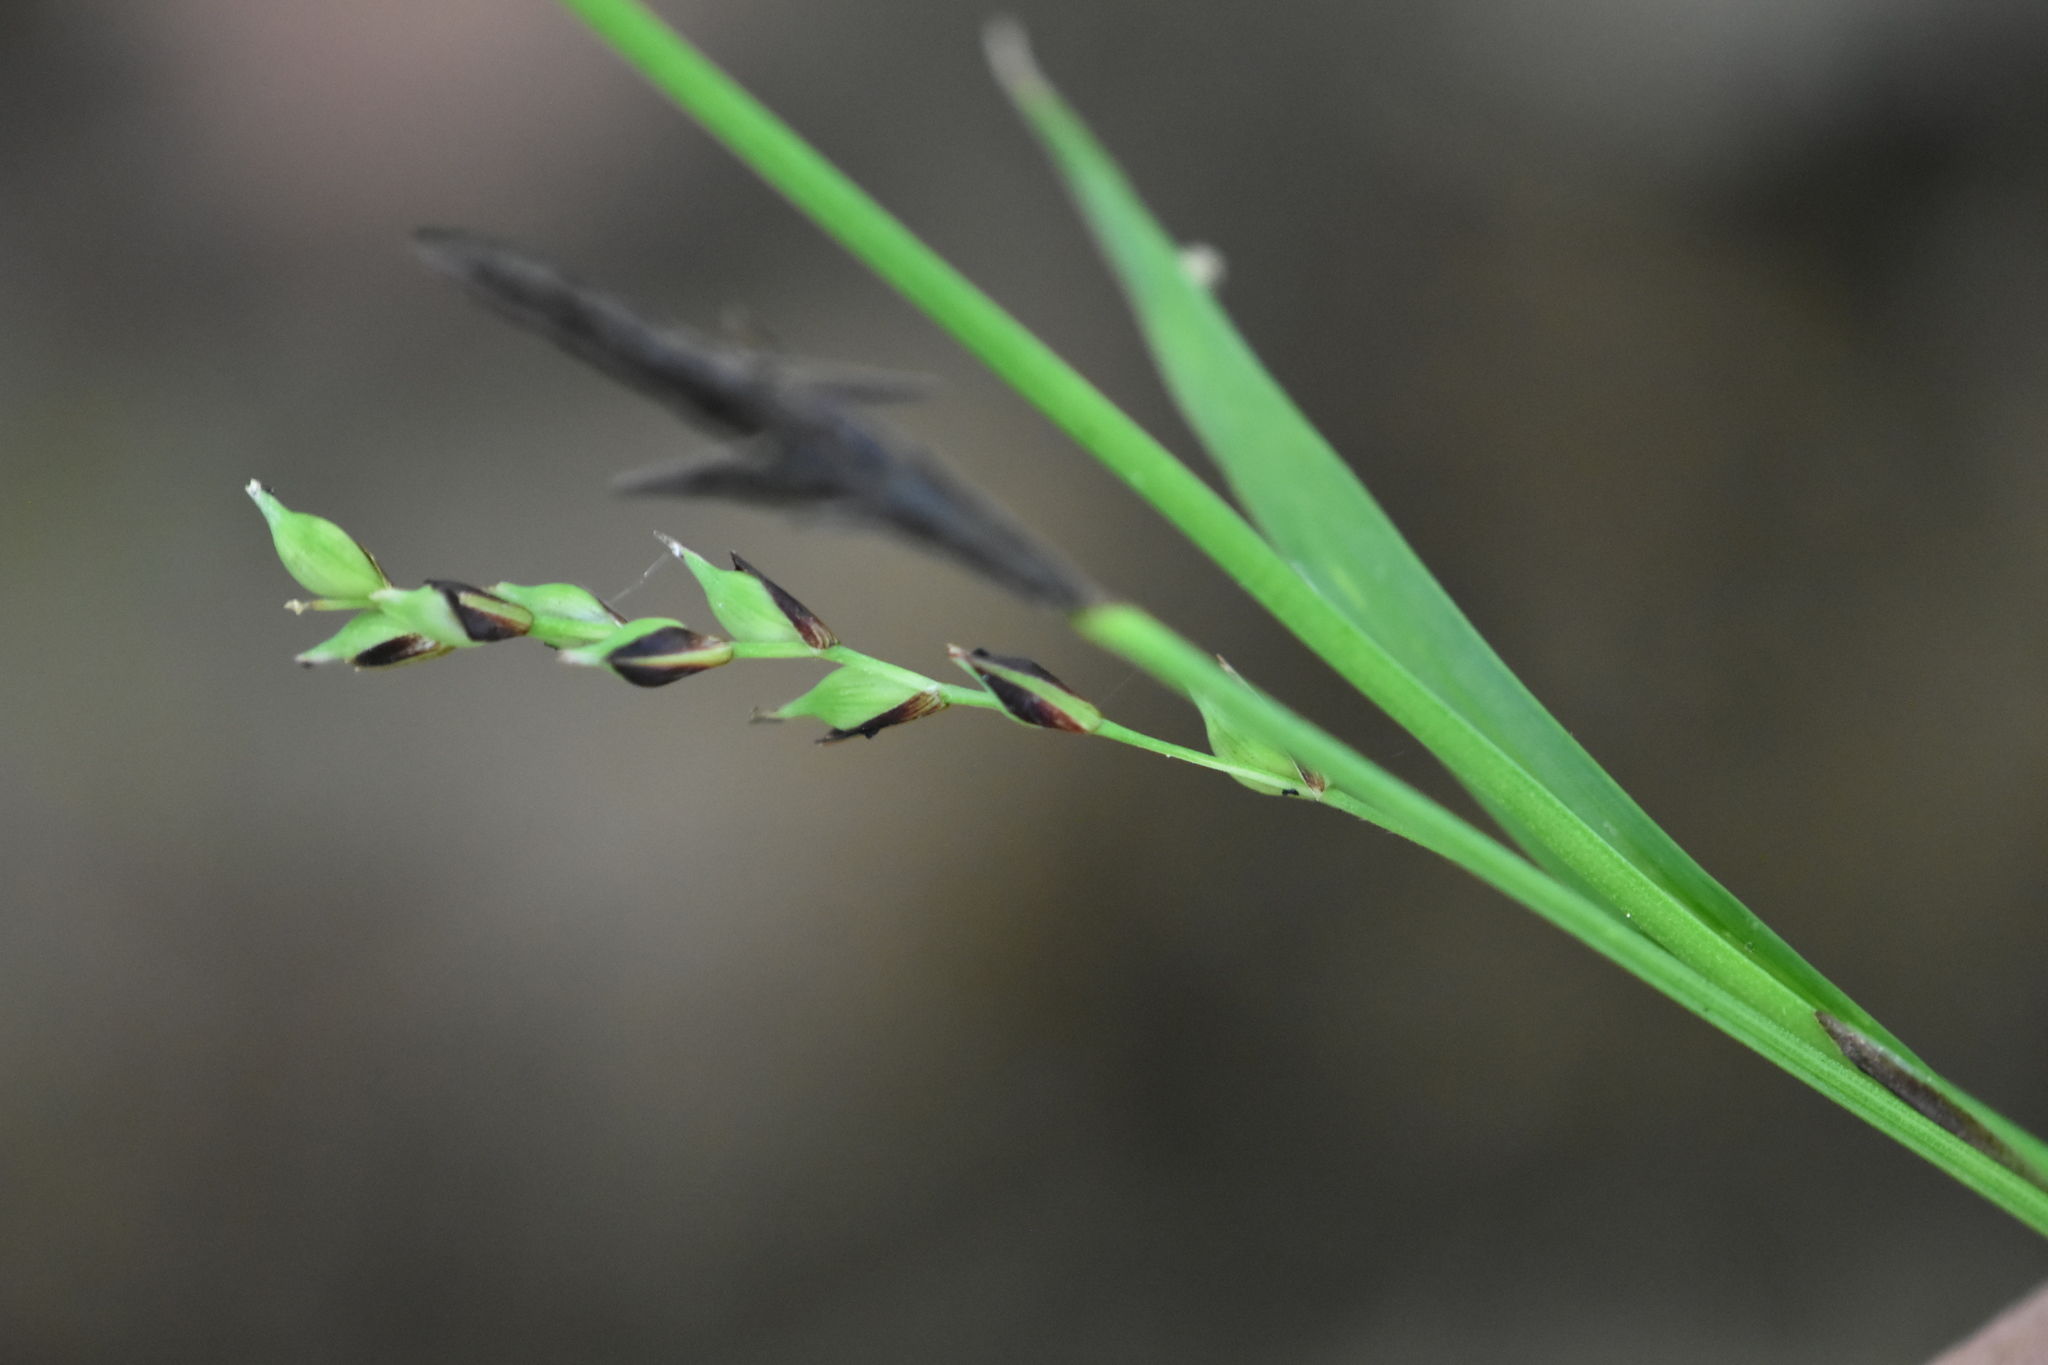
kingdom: Plantae
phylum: Tracheophyta
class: Liliopsida
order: Poales
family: Cyperaceae
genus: Carex
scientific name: Carex pilosa
